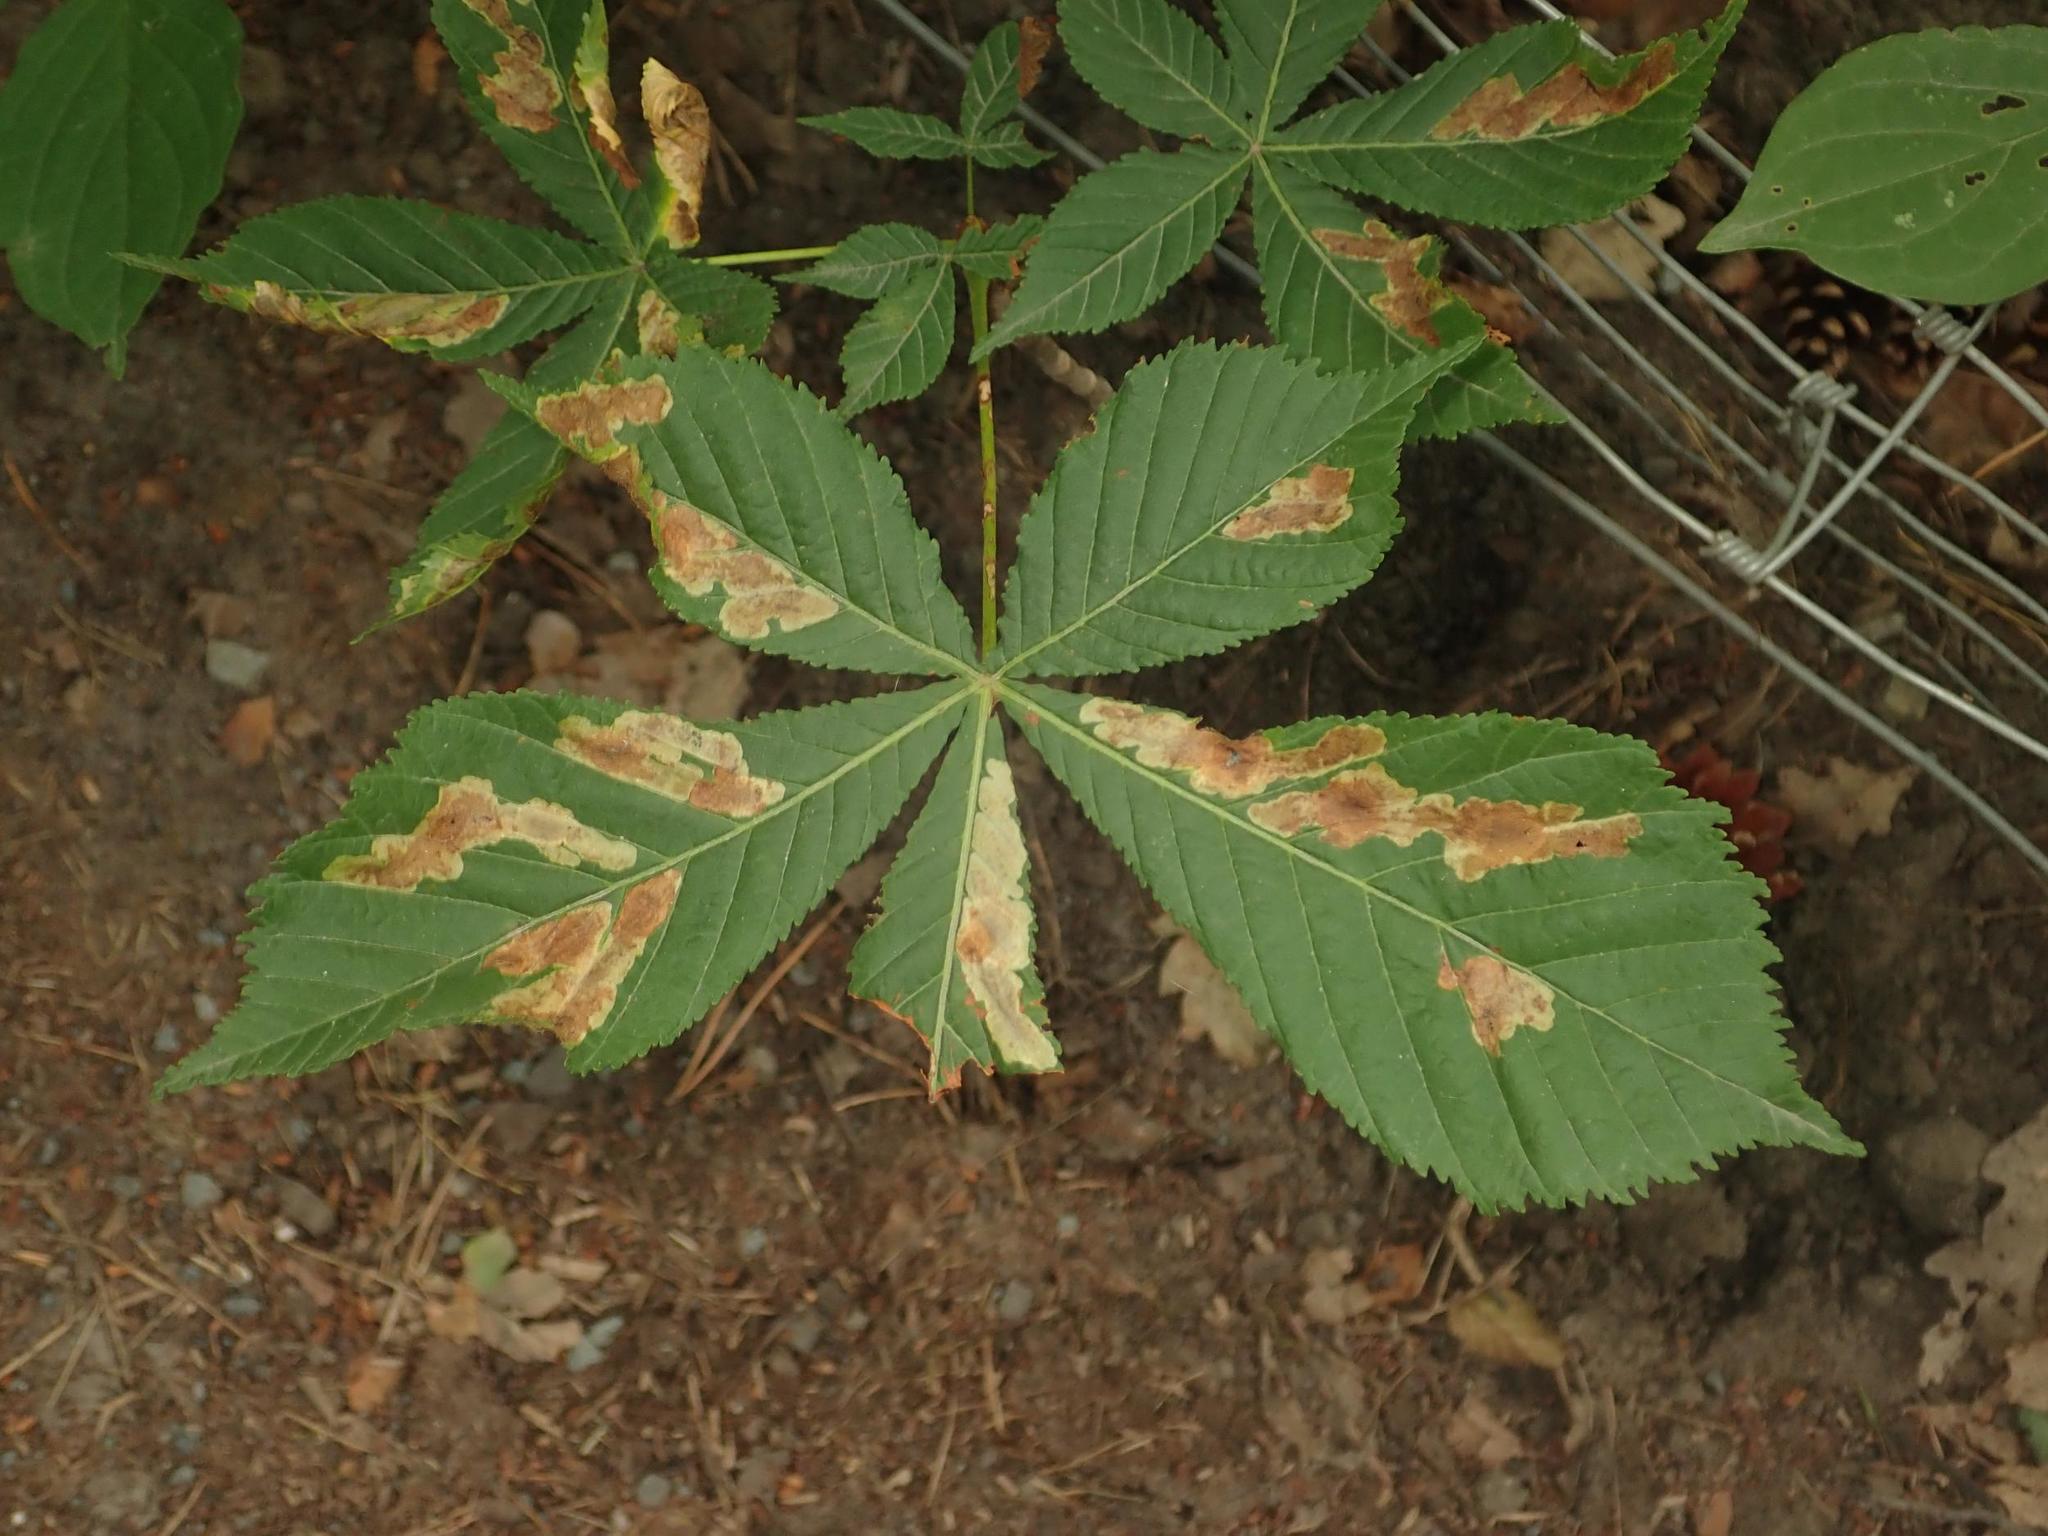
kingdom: Animalia
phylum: Arthropoda
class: Insecta
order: Lepidoptera
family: Gracillariidae
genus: Cameraria
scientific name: Cameraria ohridella
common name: Horse-chestnut leaf-miner
